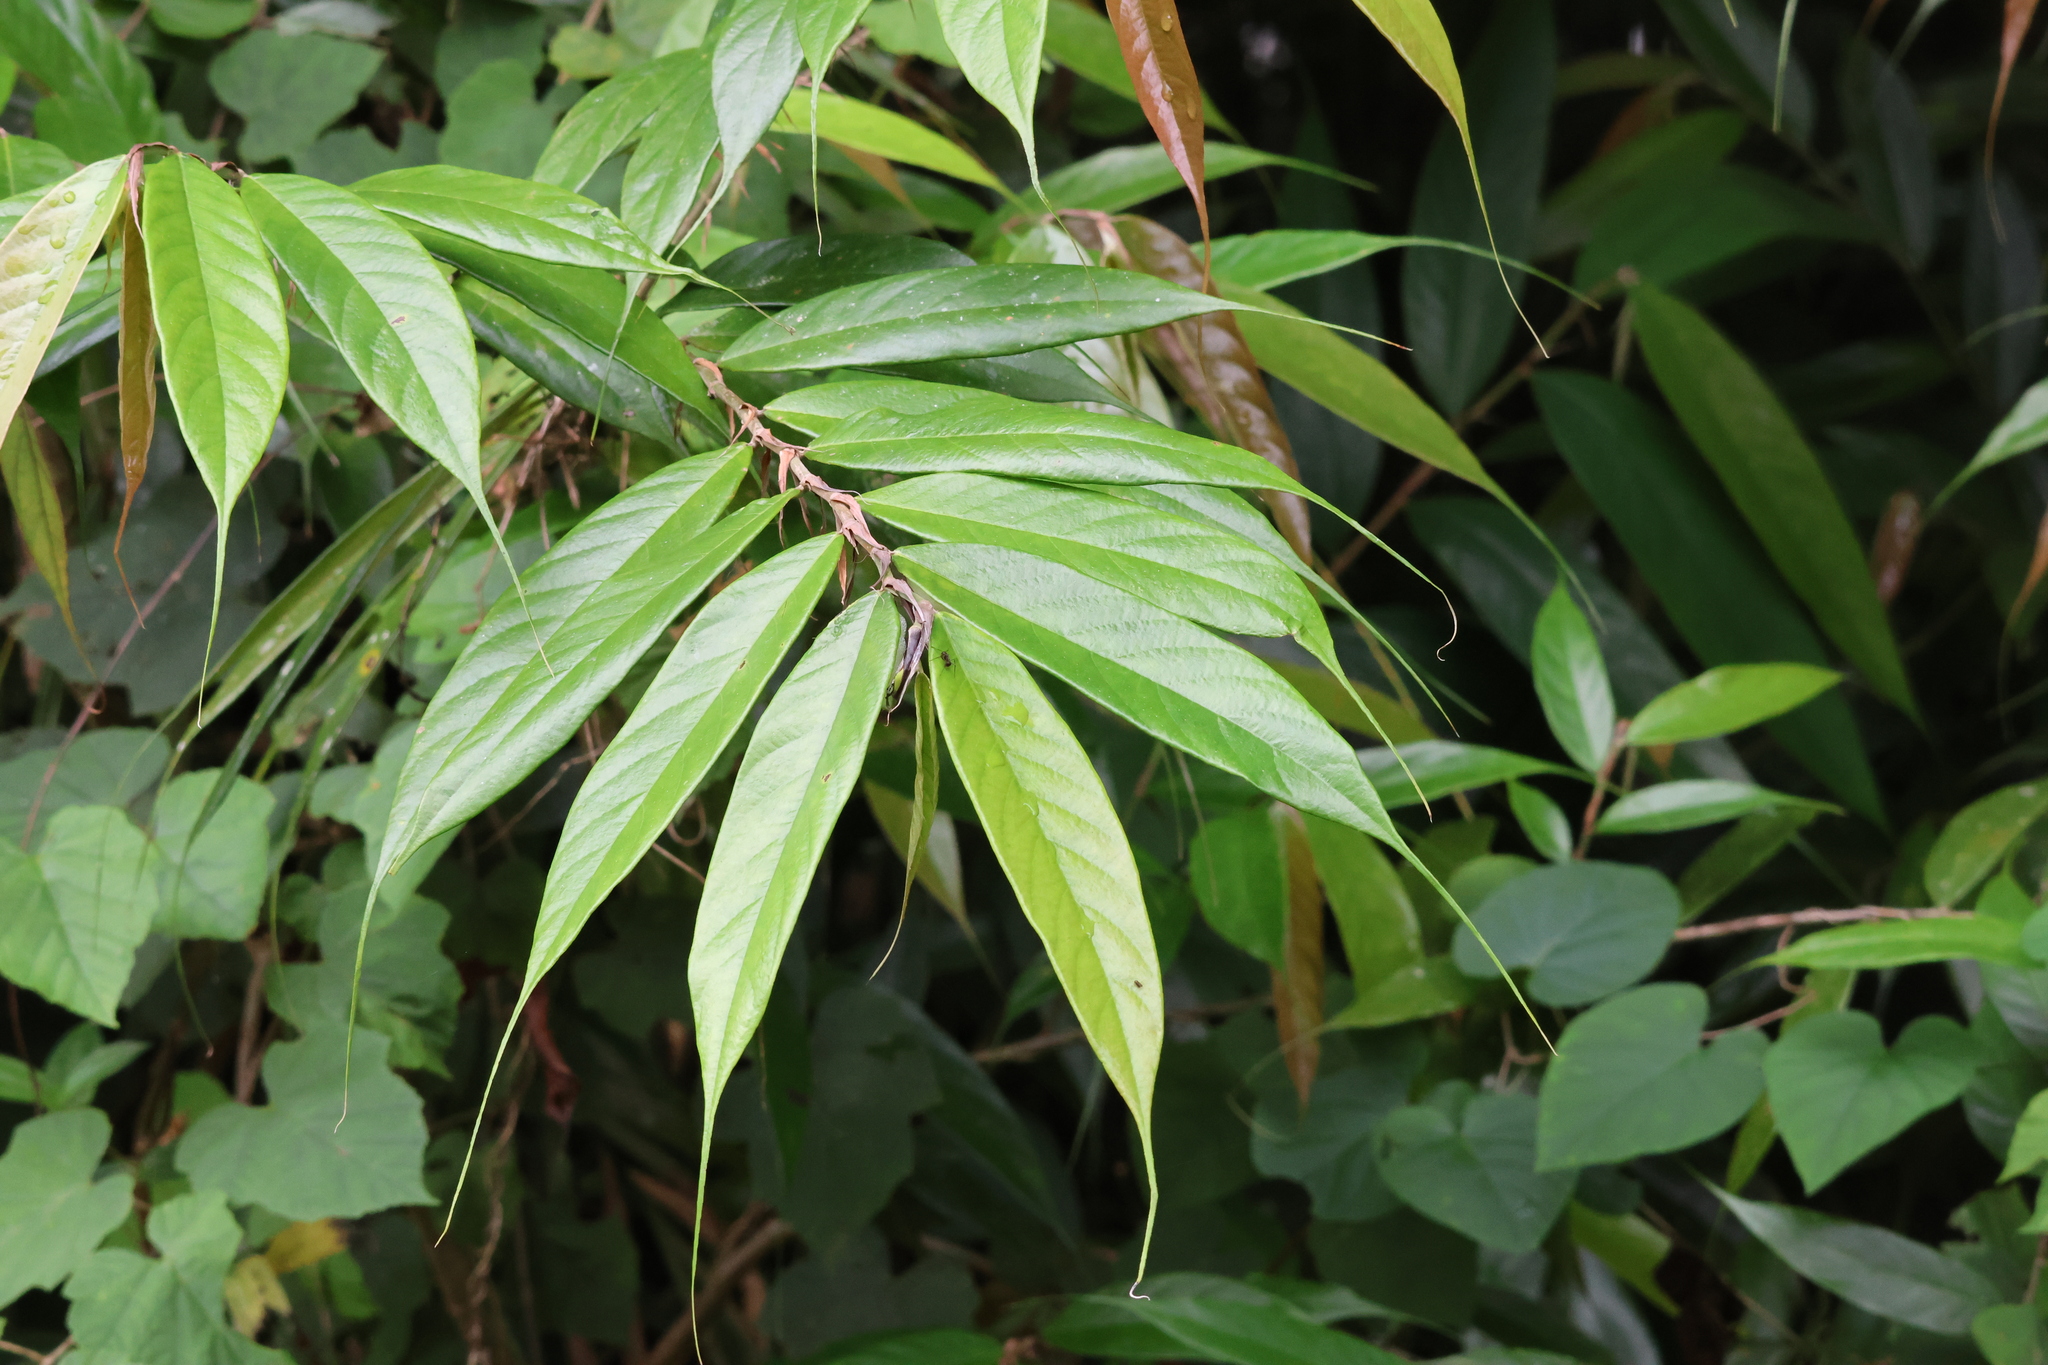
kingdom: Plantae
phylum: Tracheophyta
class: Magnoliopsida
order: Rosales
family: Moraceae
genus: Ficus
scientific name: Ficus beccarii
